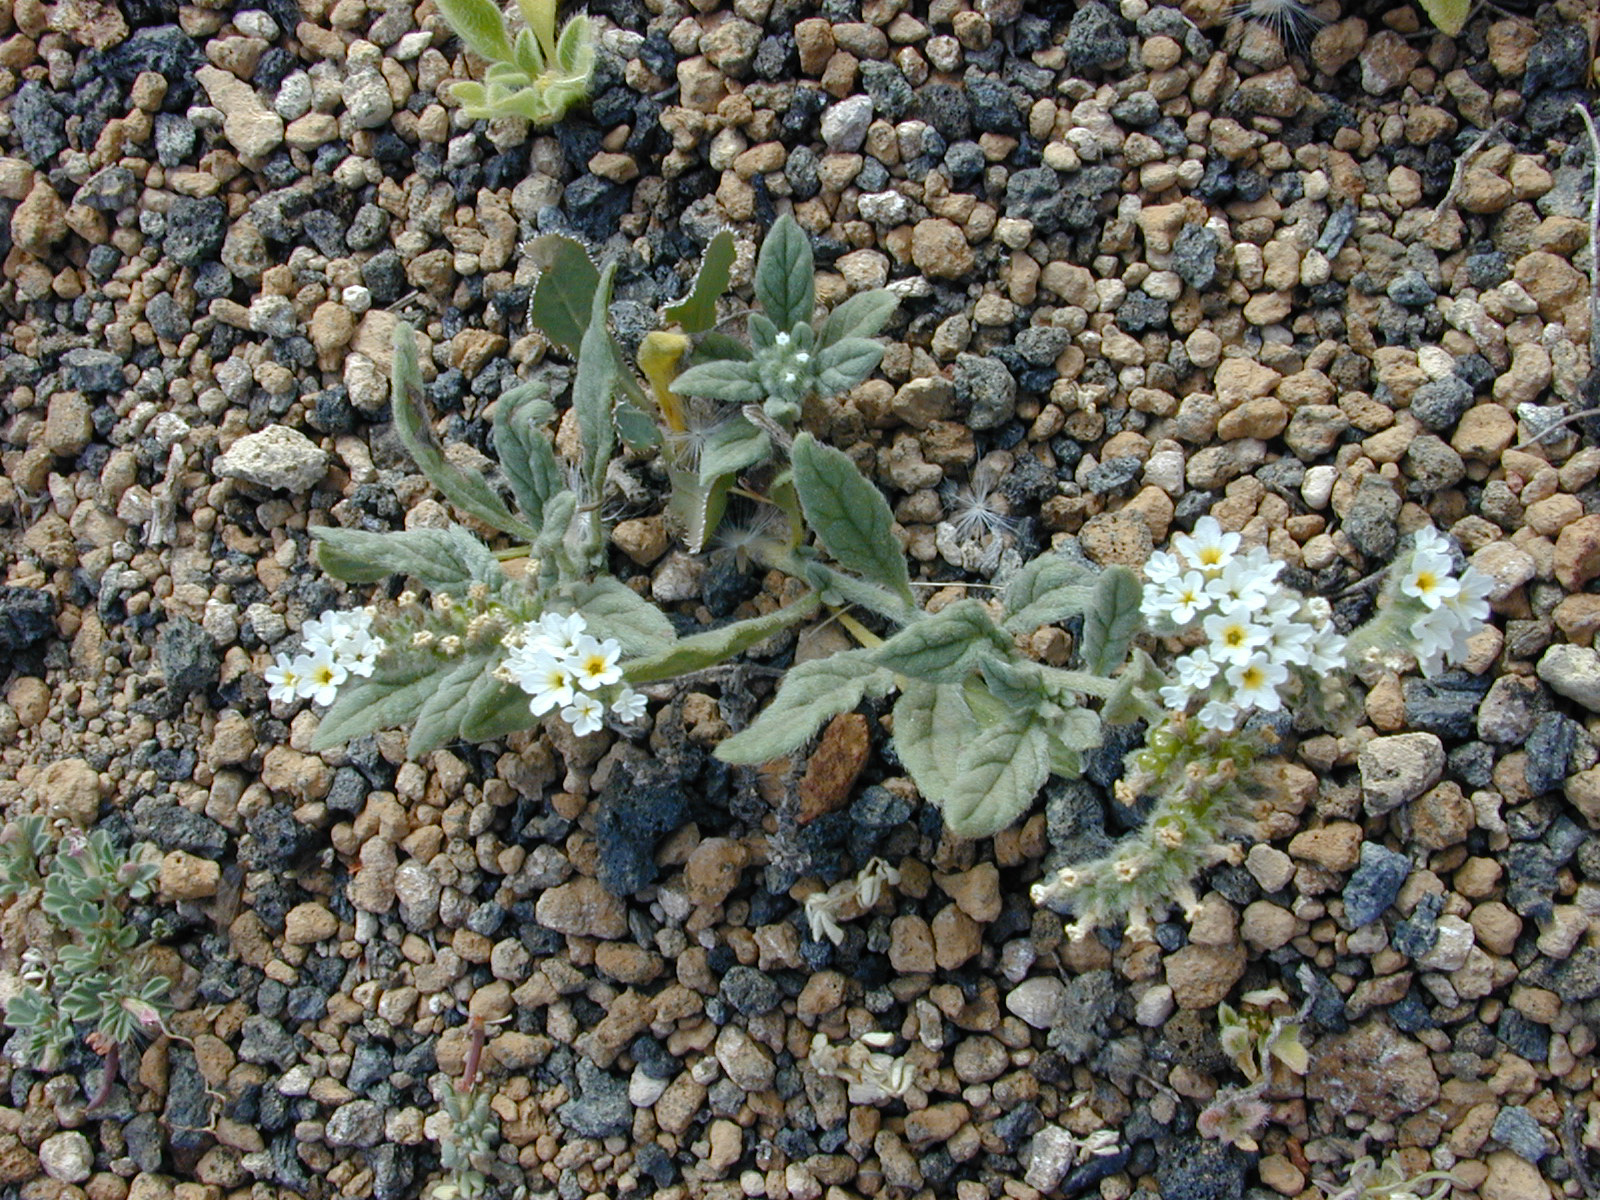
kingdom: Plantae
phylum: Tracheophyta
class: Magnoliopsida
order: Boraginales
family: Heliotropiaceae
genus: Heliotropium
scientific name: Heliotropium ramosissimum
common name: Wavy heliotrope
